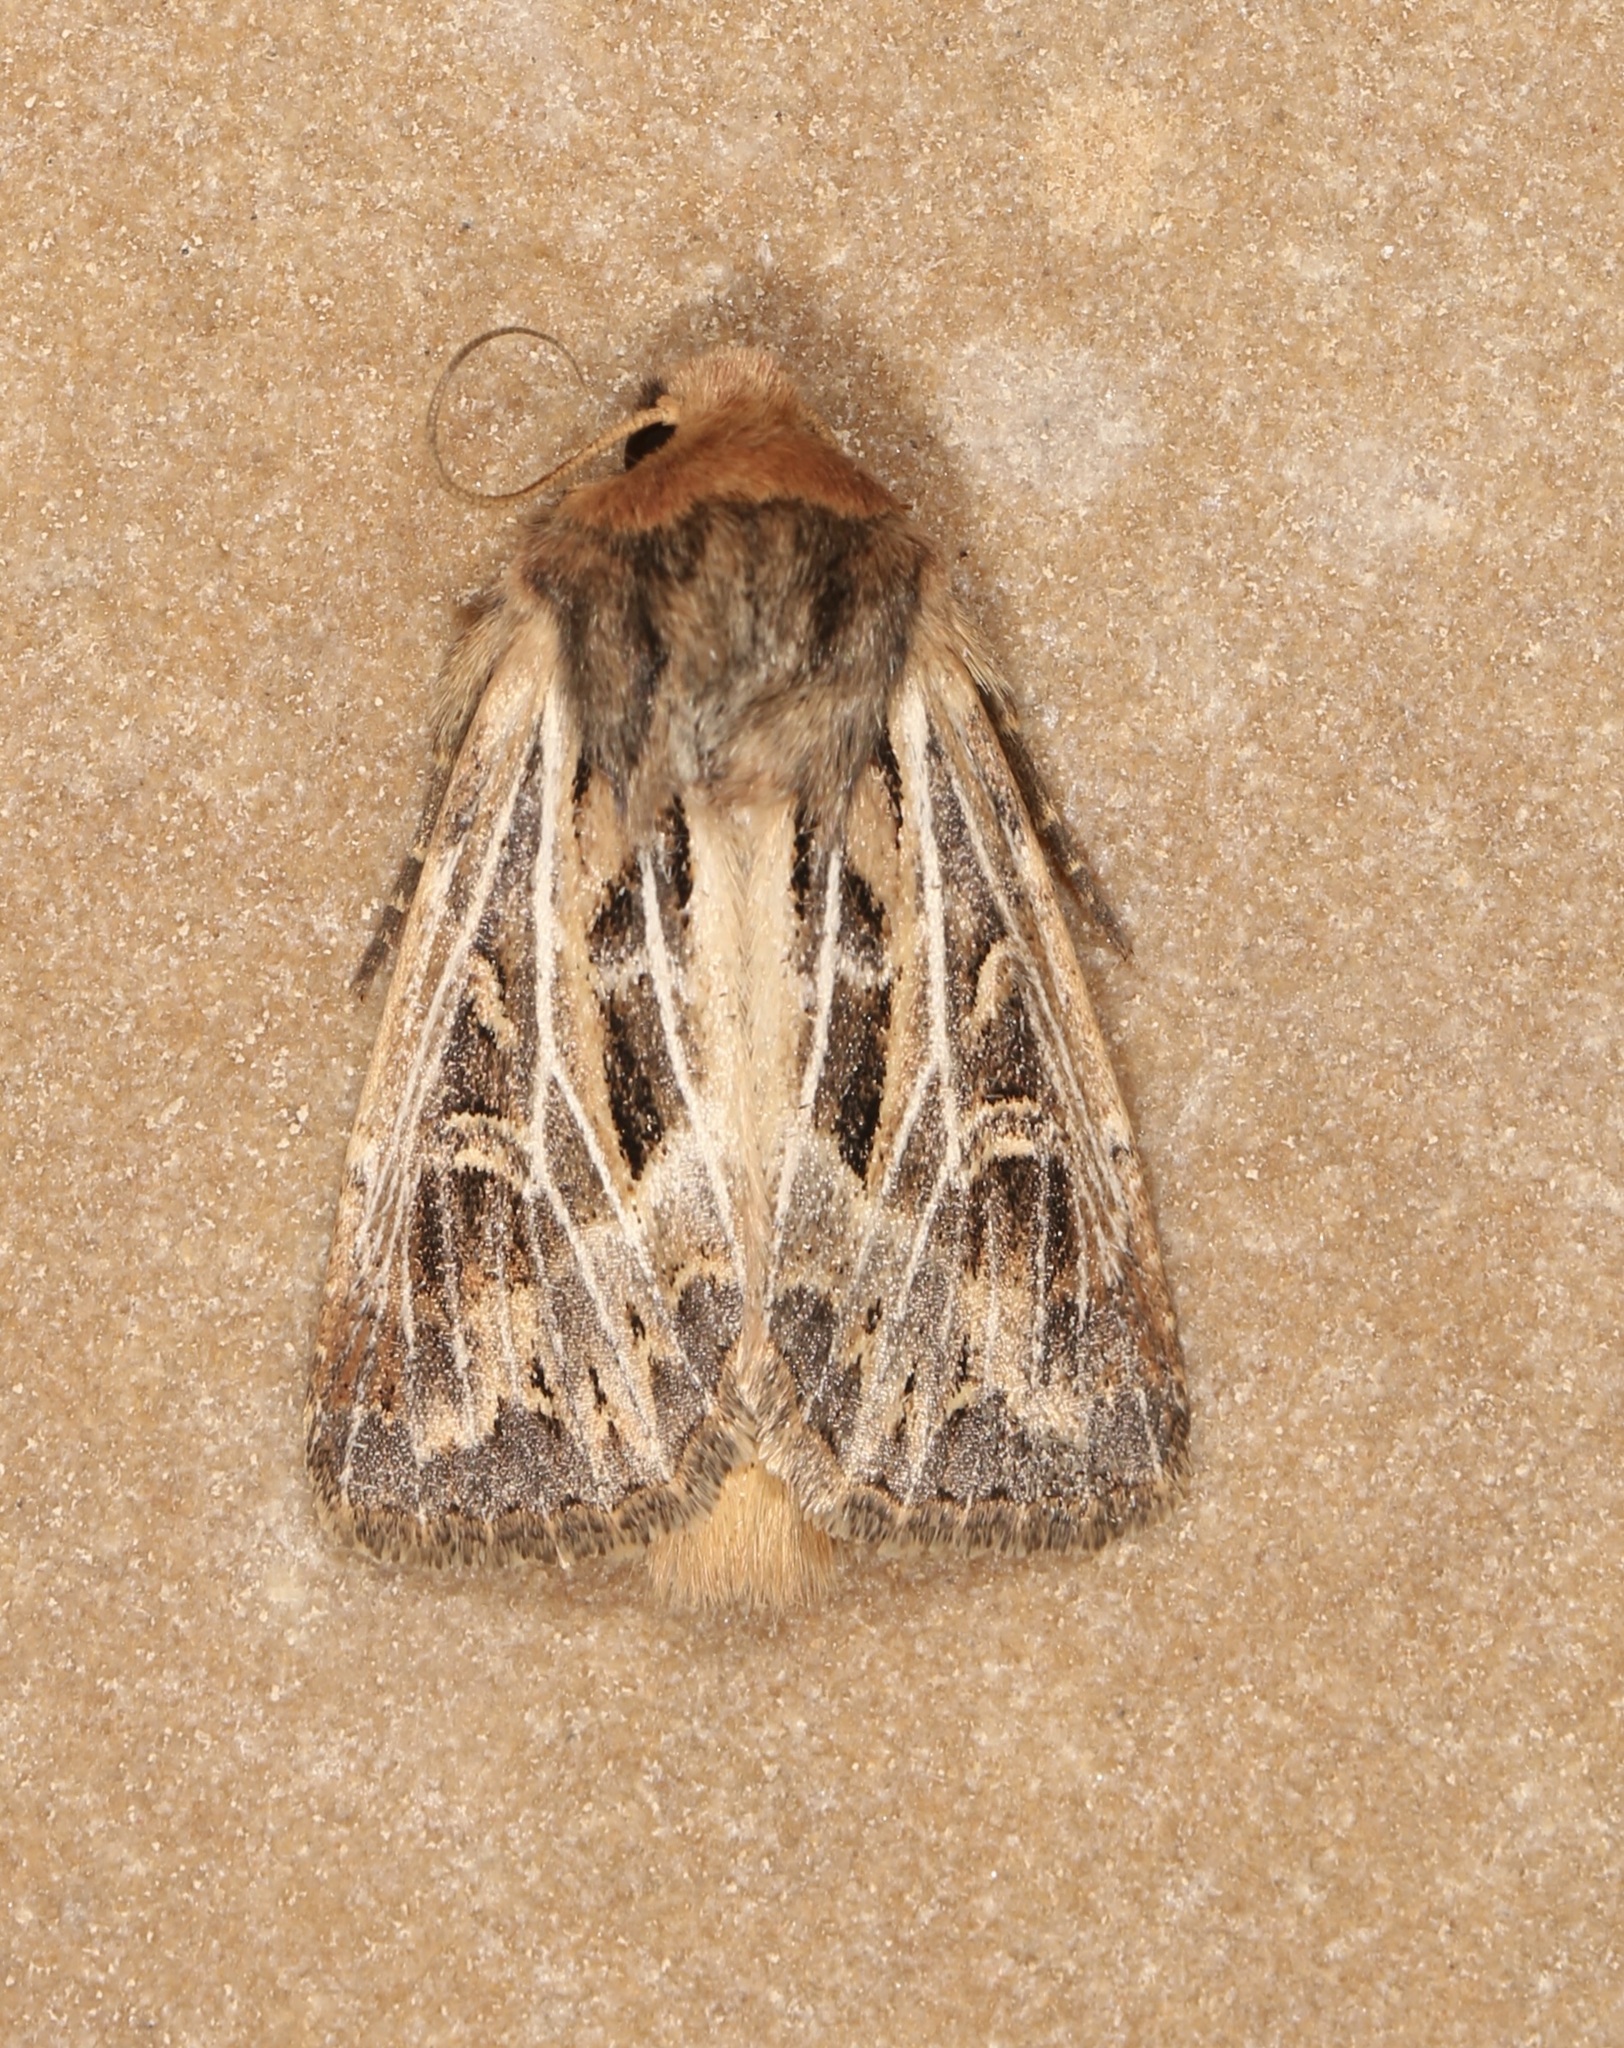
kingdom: Animalia
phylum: Arthropoda
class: Insecta
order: Lepidoptera
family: Noctuidae
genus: Apamea
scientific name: Apamea niveivenosa
